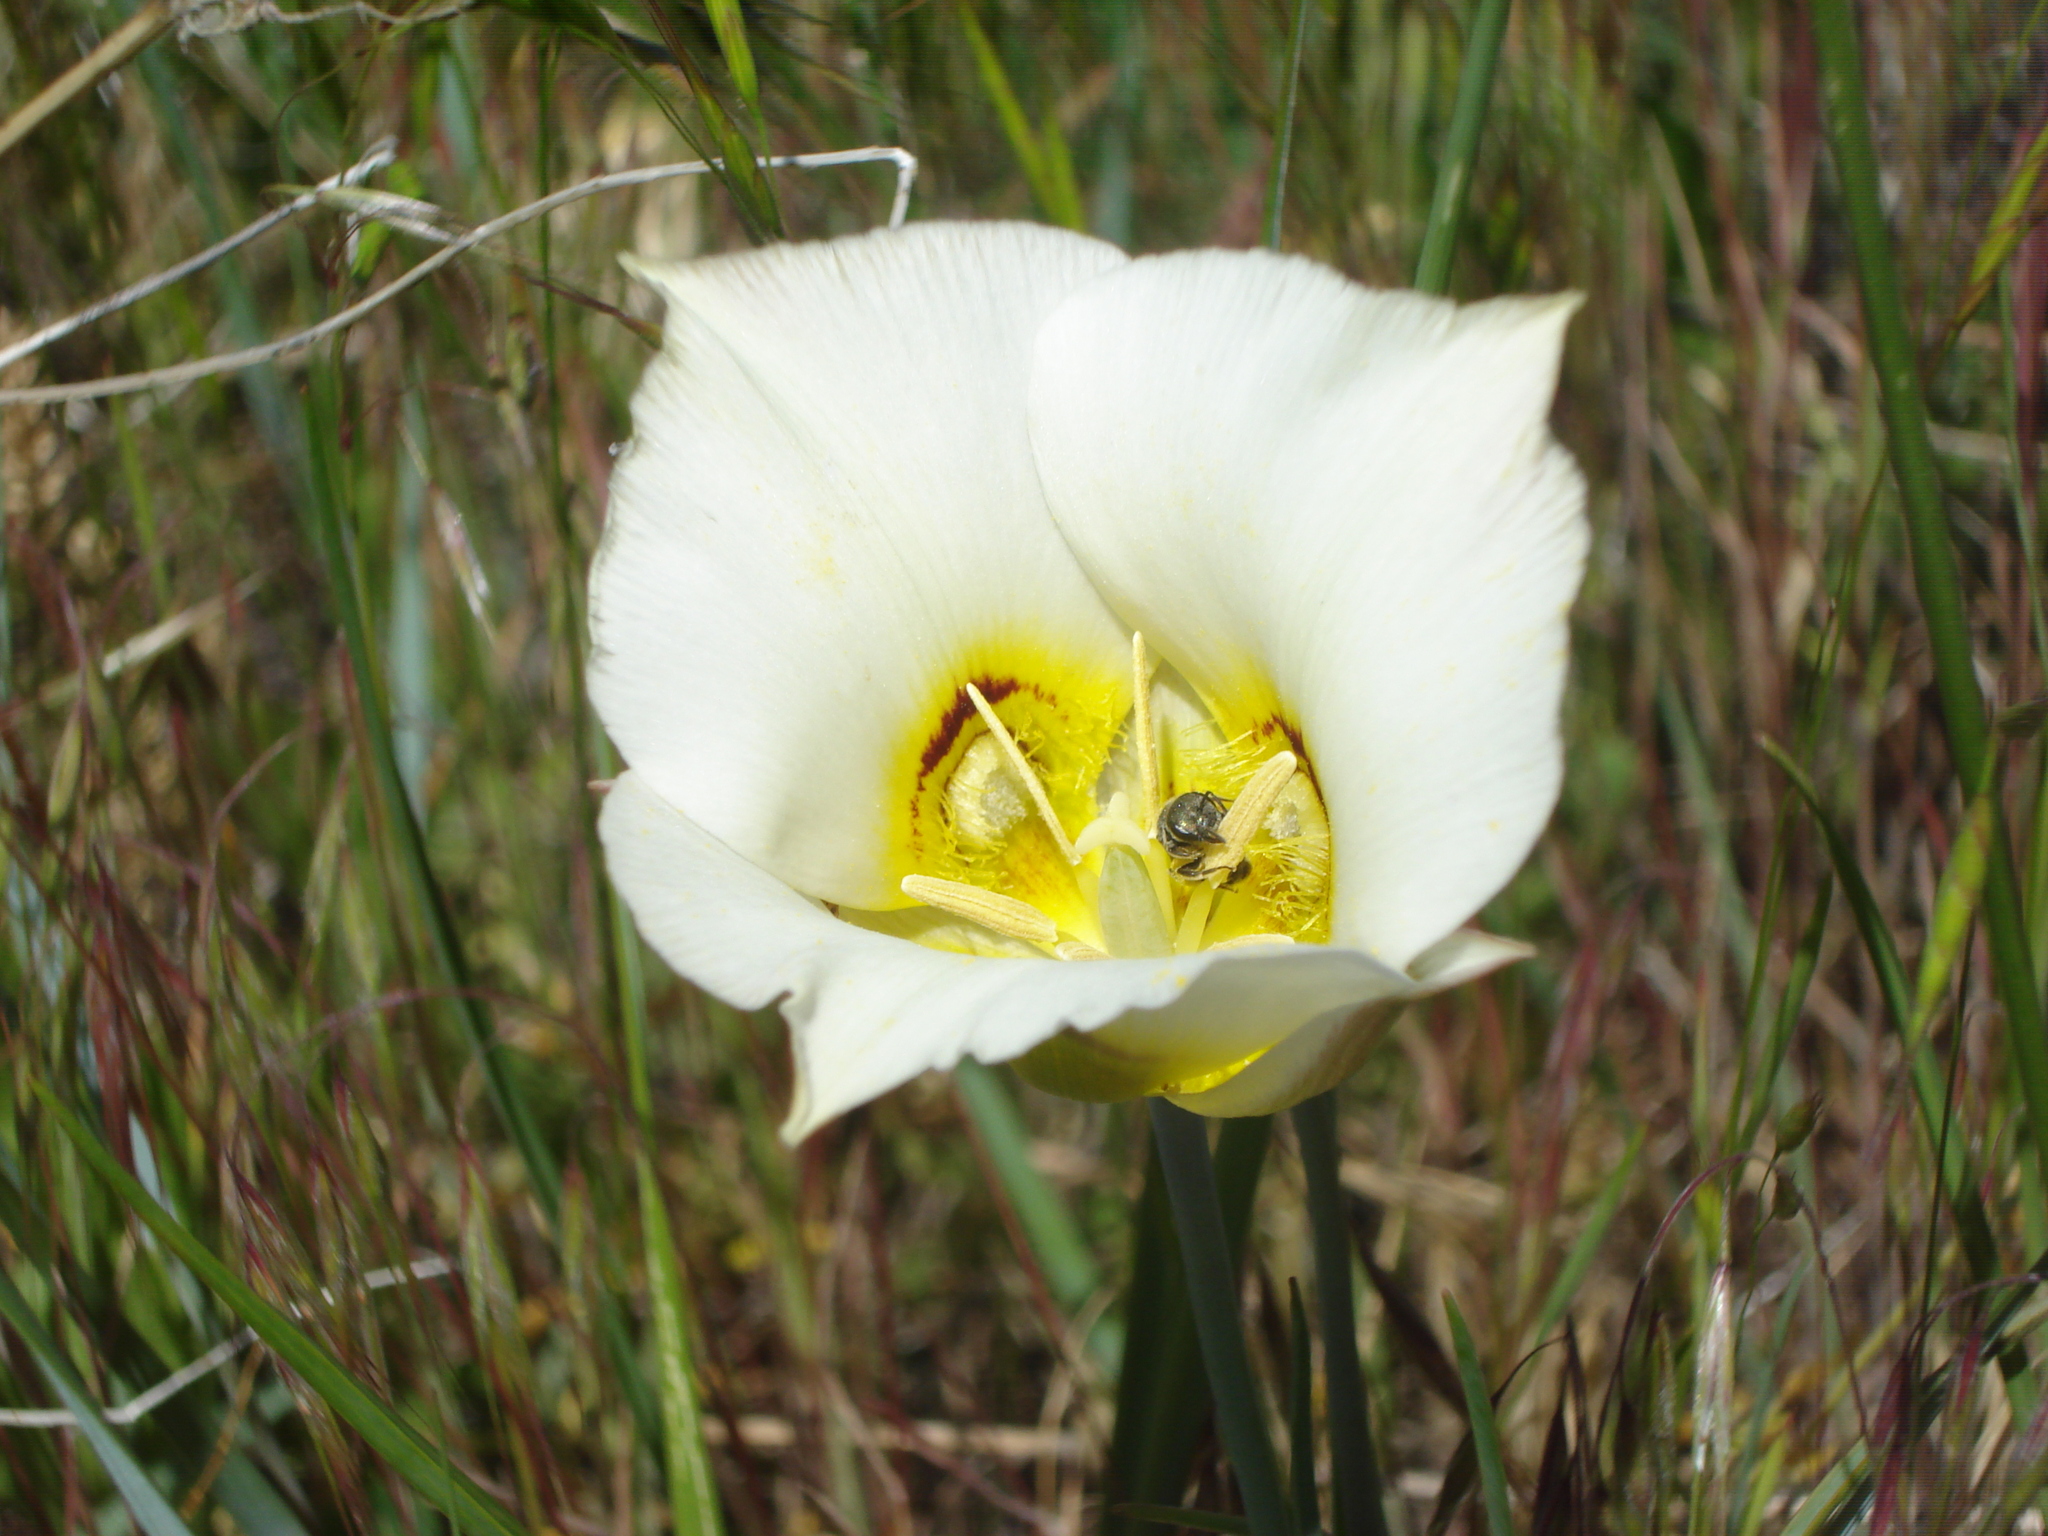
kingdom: Plantae
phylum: Tracheophyta
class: Liliopsida
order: Liliales
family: Liliaceae
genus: Calochortus
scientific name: Calochortus nuttallii
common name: Sego-lily
